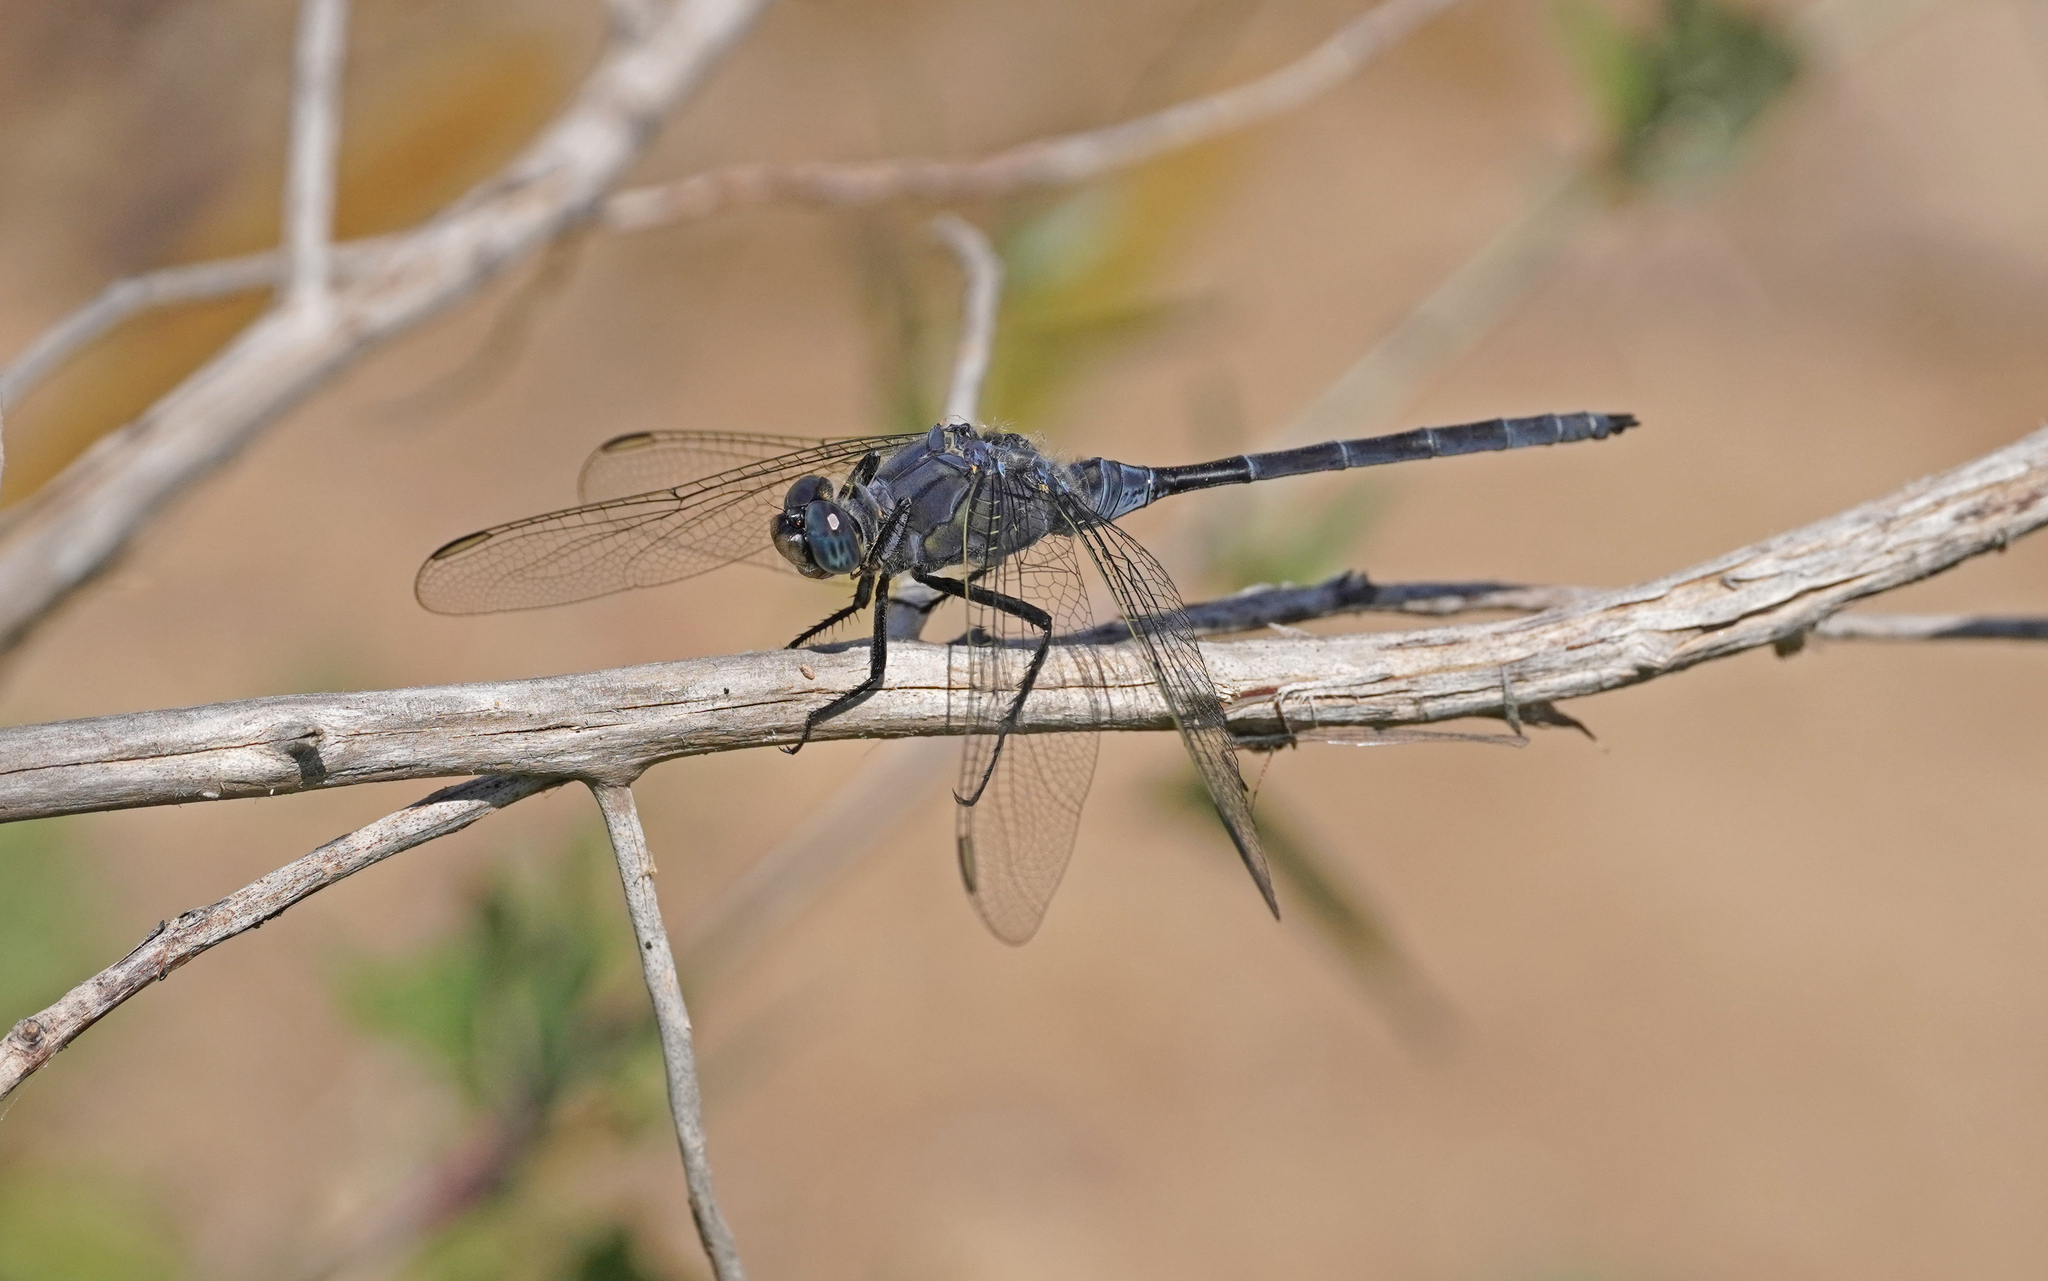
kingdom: Animalia
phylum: Arthropoda
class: Insecta
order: Odonata
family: Libellulidae
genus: Orthetrum
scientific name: Orthetrum trinacria
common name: Long skimmer
